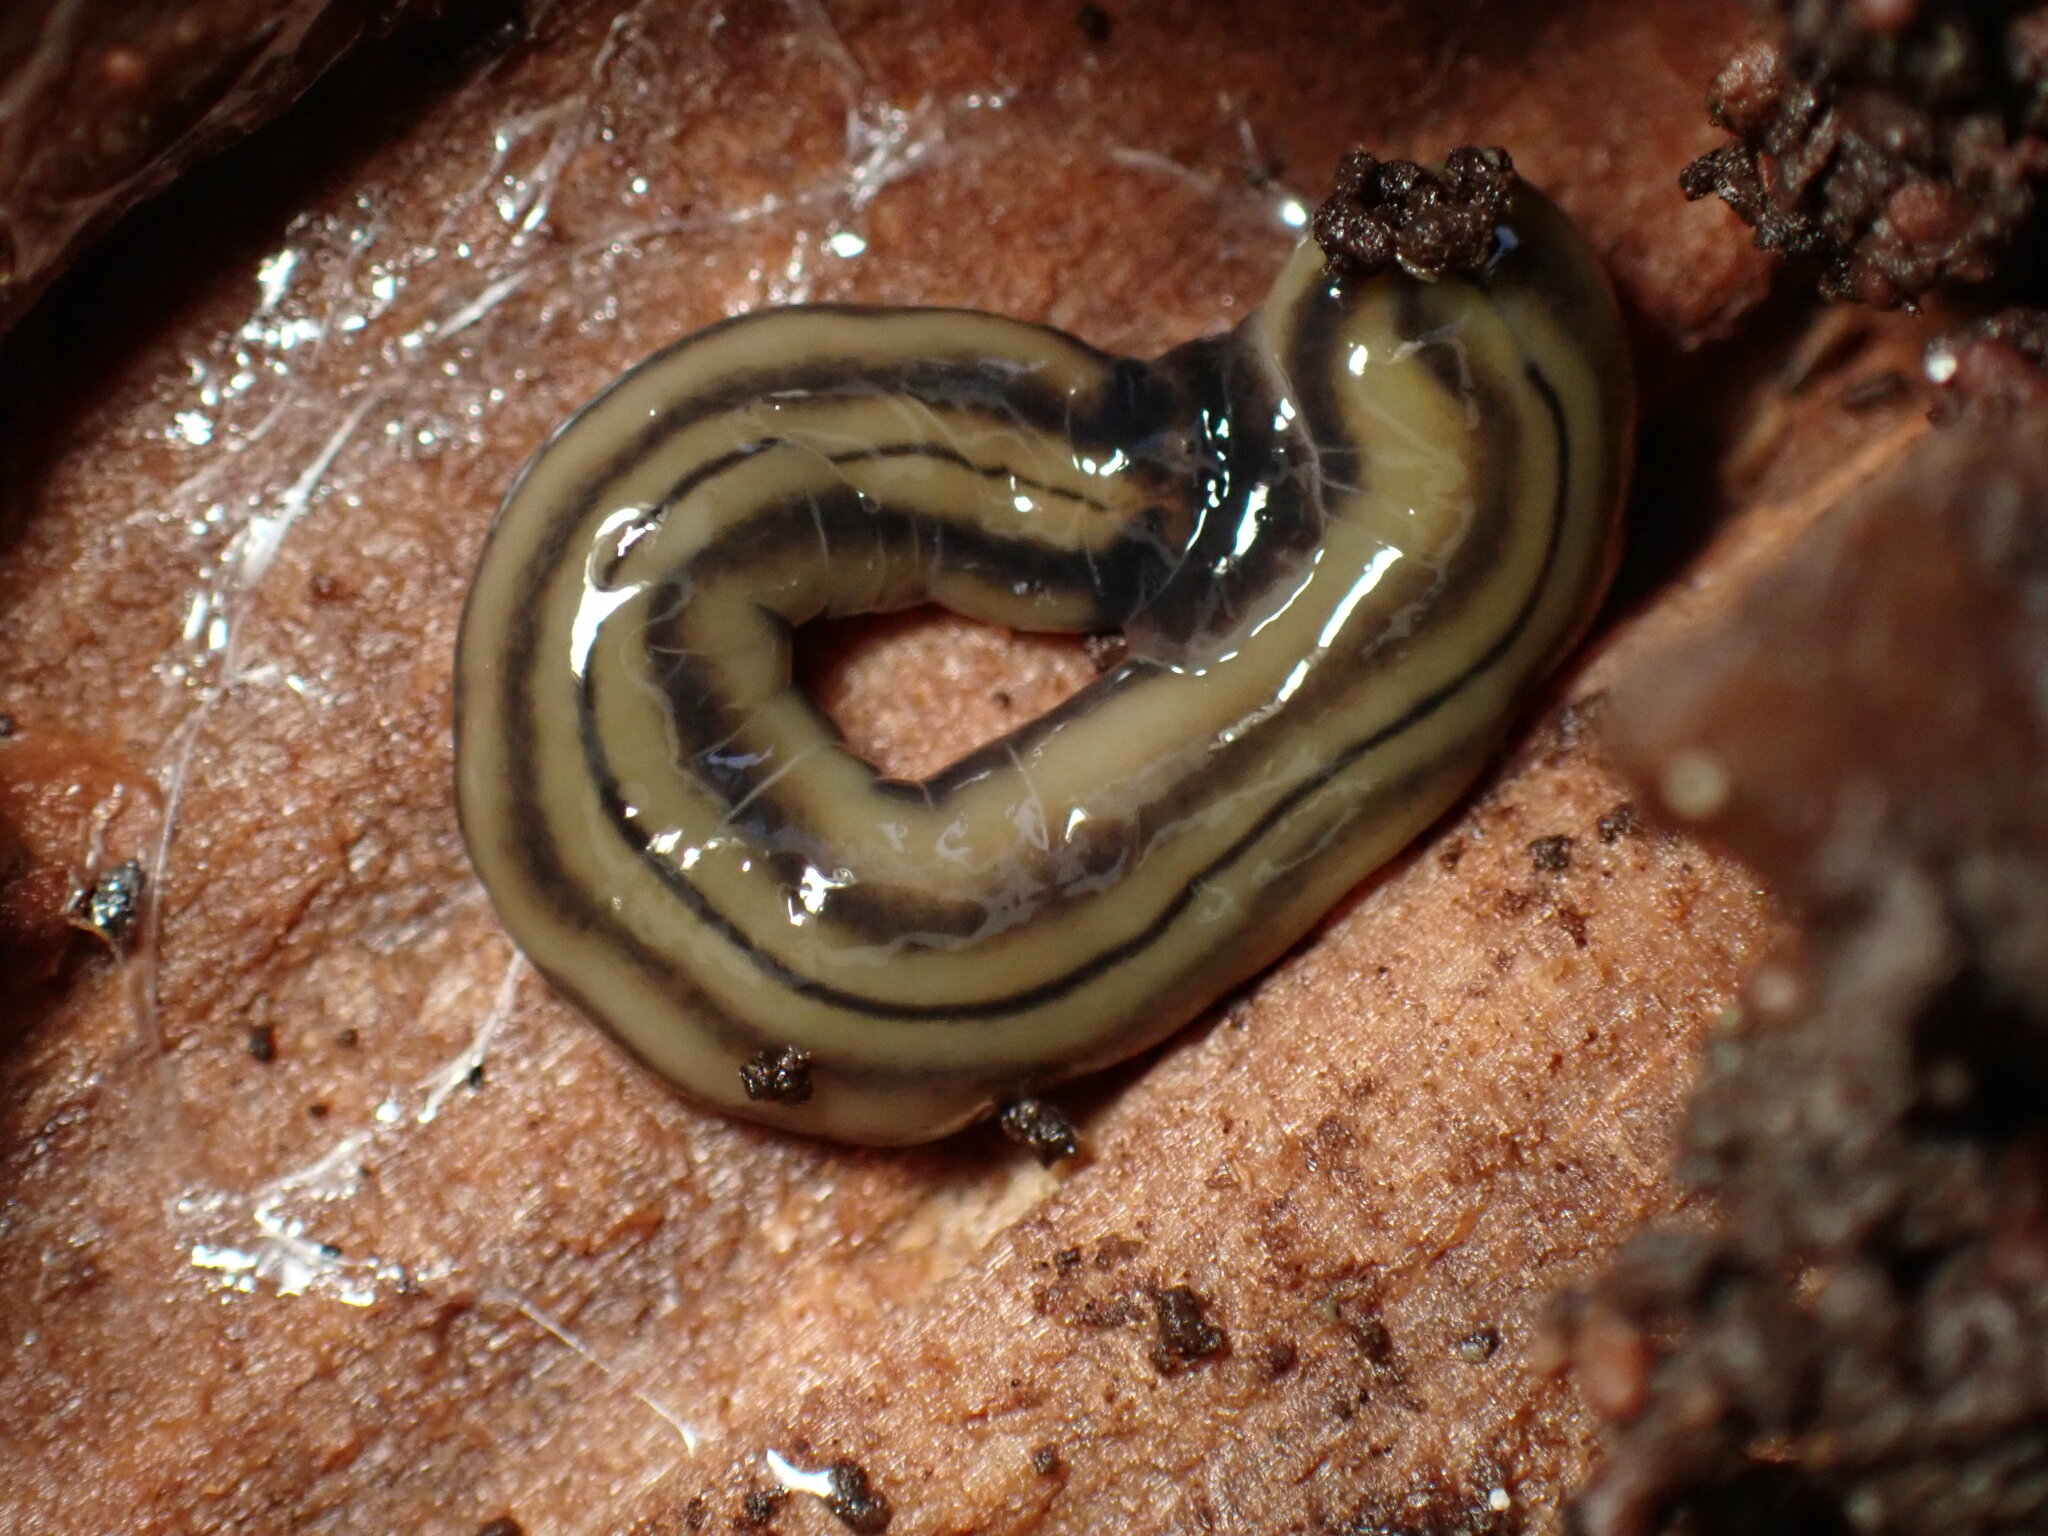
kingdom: Animalia
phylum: Platyhelminthes
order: Tricladida
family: Geoplanidae
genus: Bipalium
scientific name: Bipalium kewense
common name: Hammerhead flatworm
